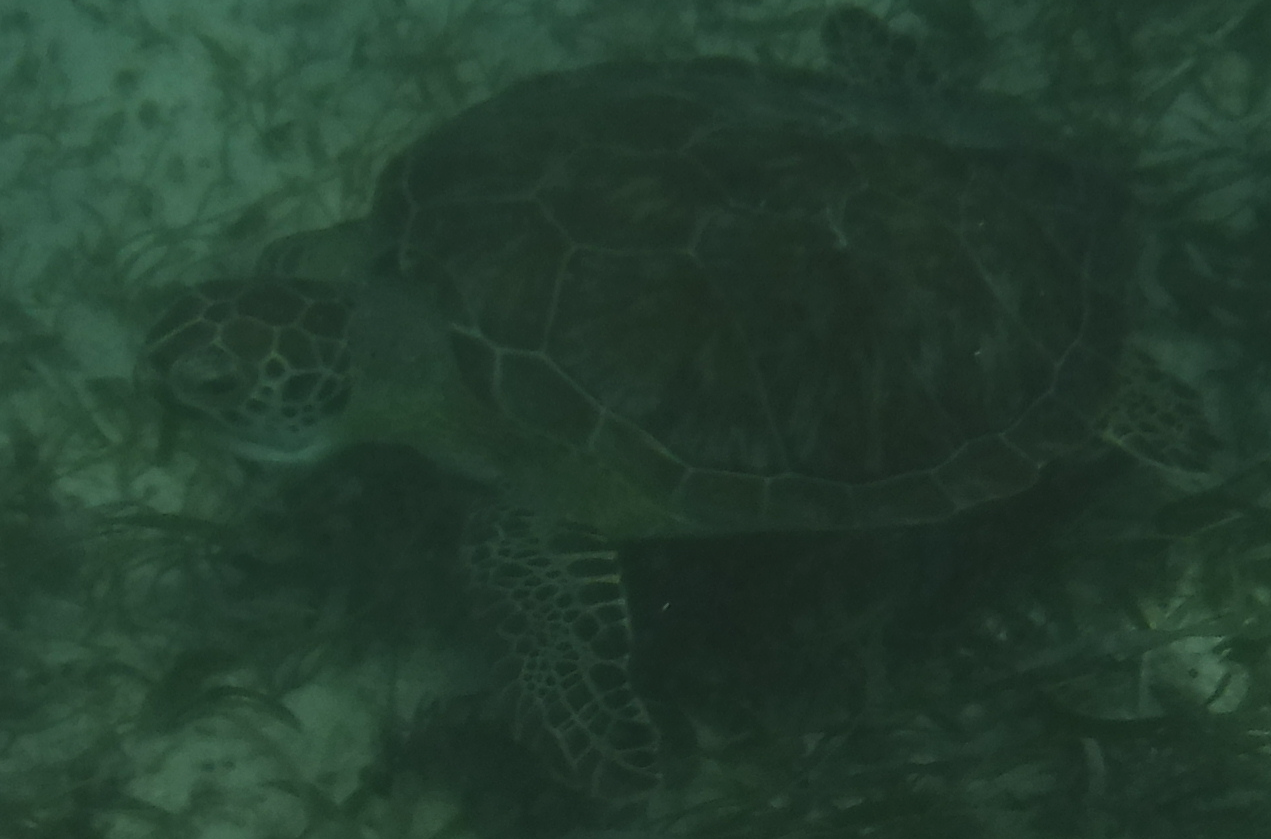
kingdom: Animalia
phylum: Chordata
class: Testudines
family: Cheloniidae
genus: Chelonia
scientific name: Chelonia mydas
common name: Green turtle
